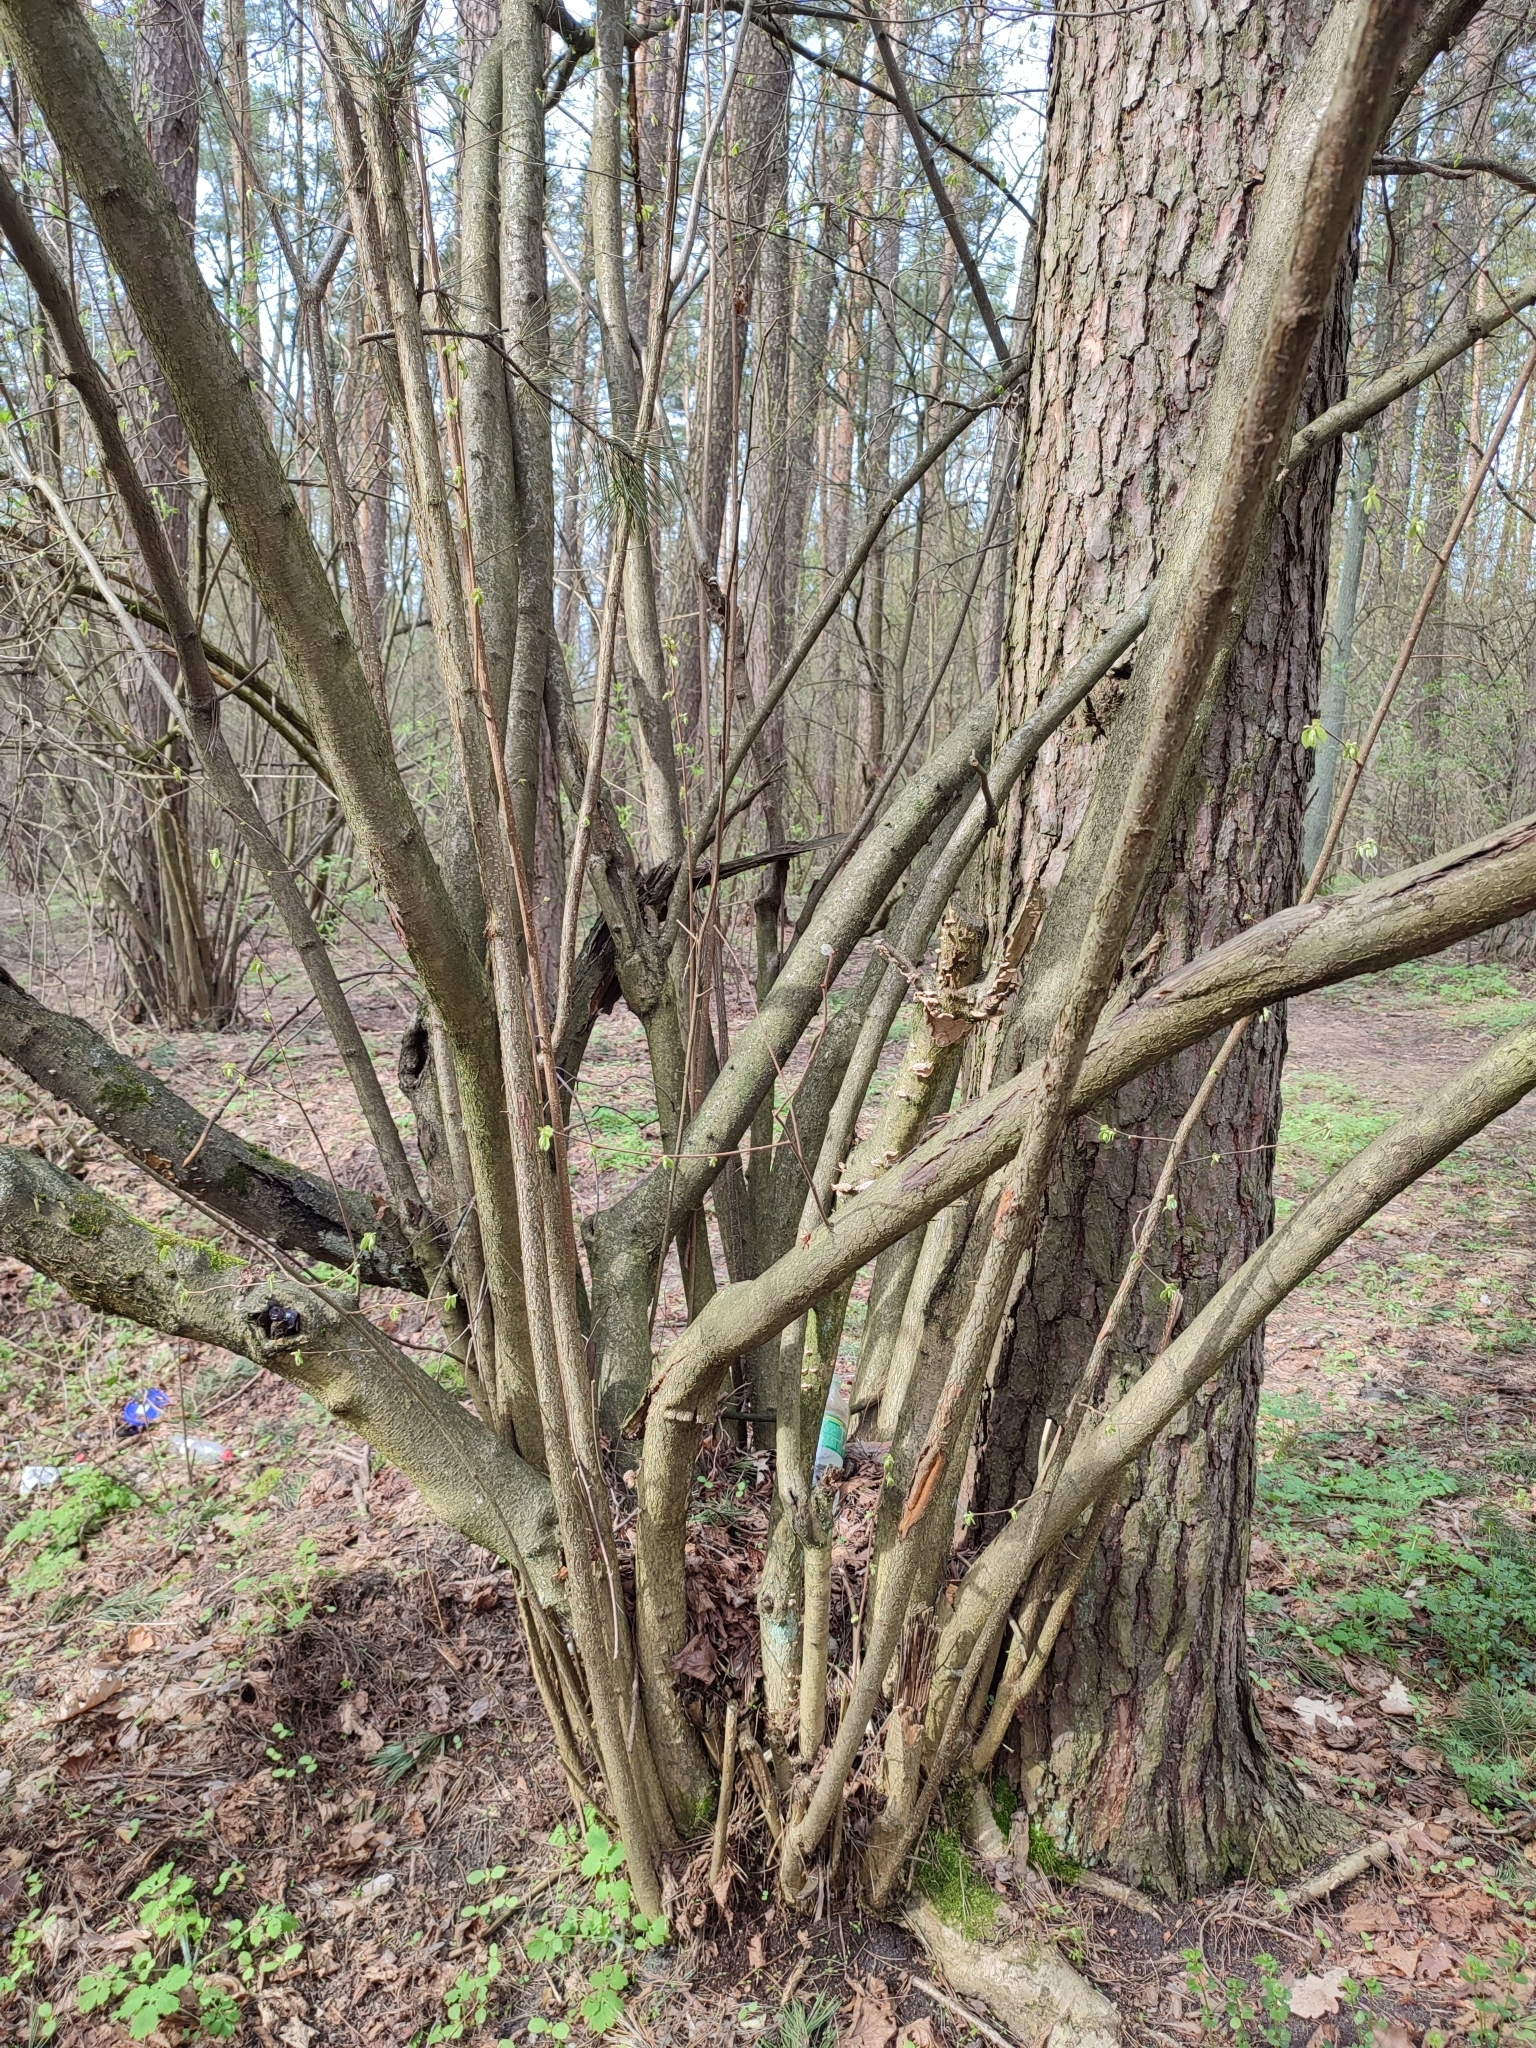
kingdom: Plantae
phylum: Tracheophyta
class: Magnoliopsida
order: Fagales
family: Betulaceae
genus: Corylus
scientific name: Corylus avellana
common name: European hazel
